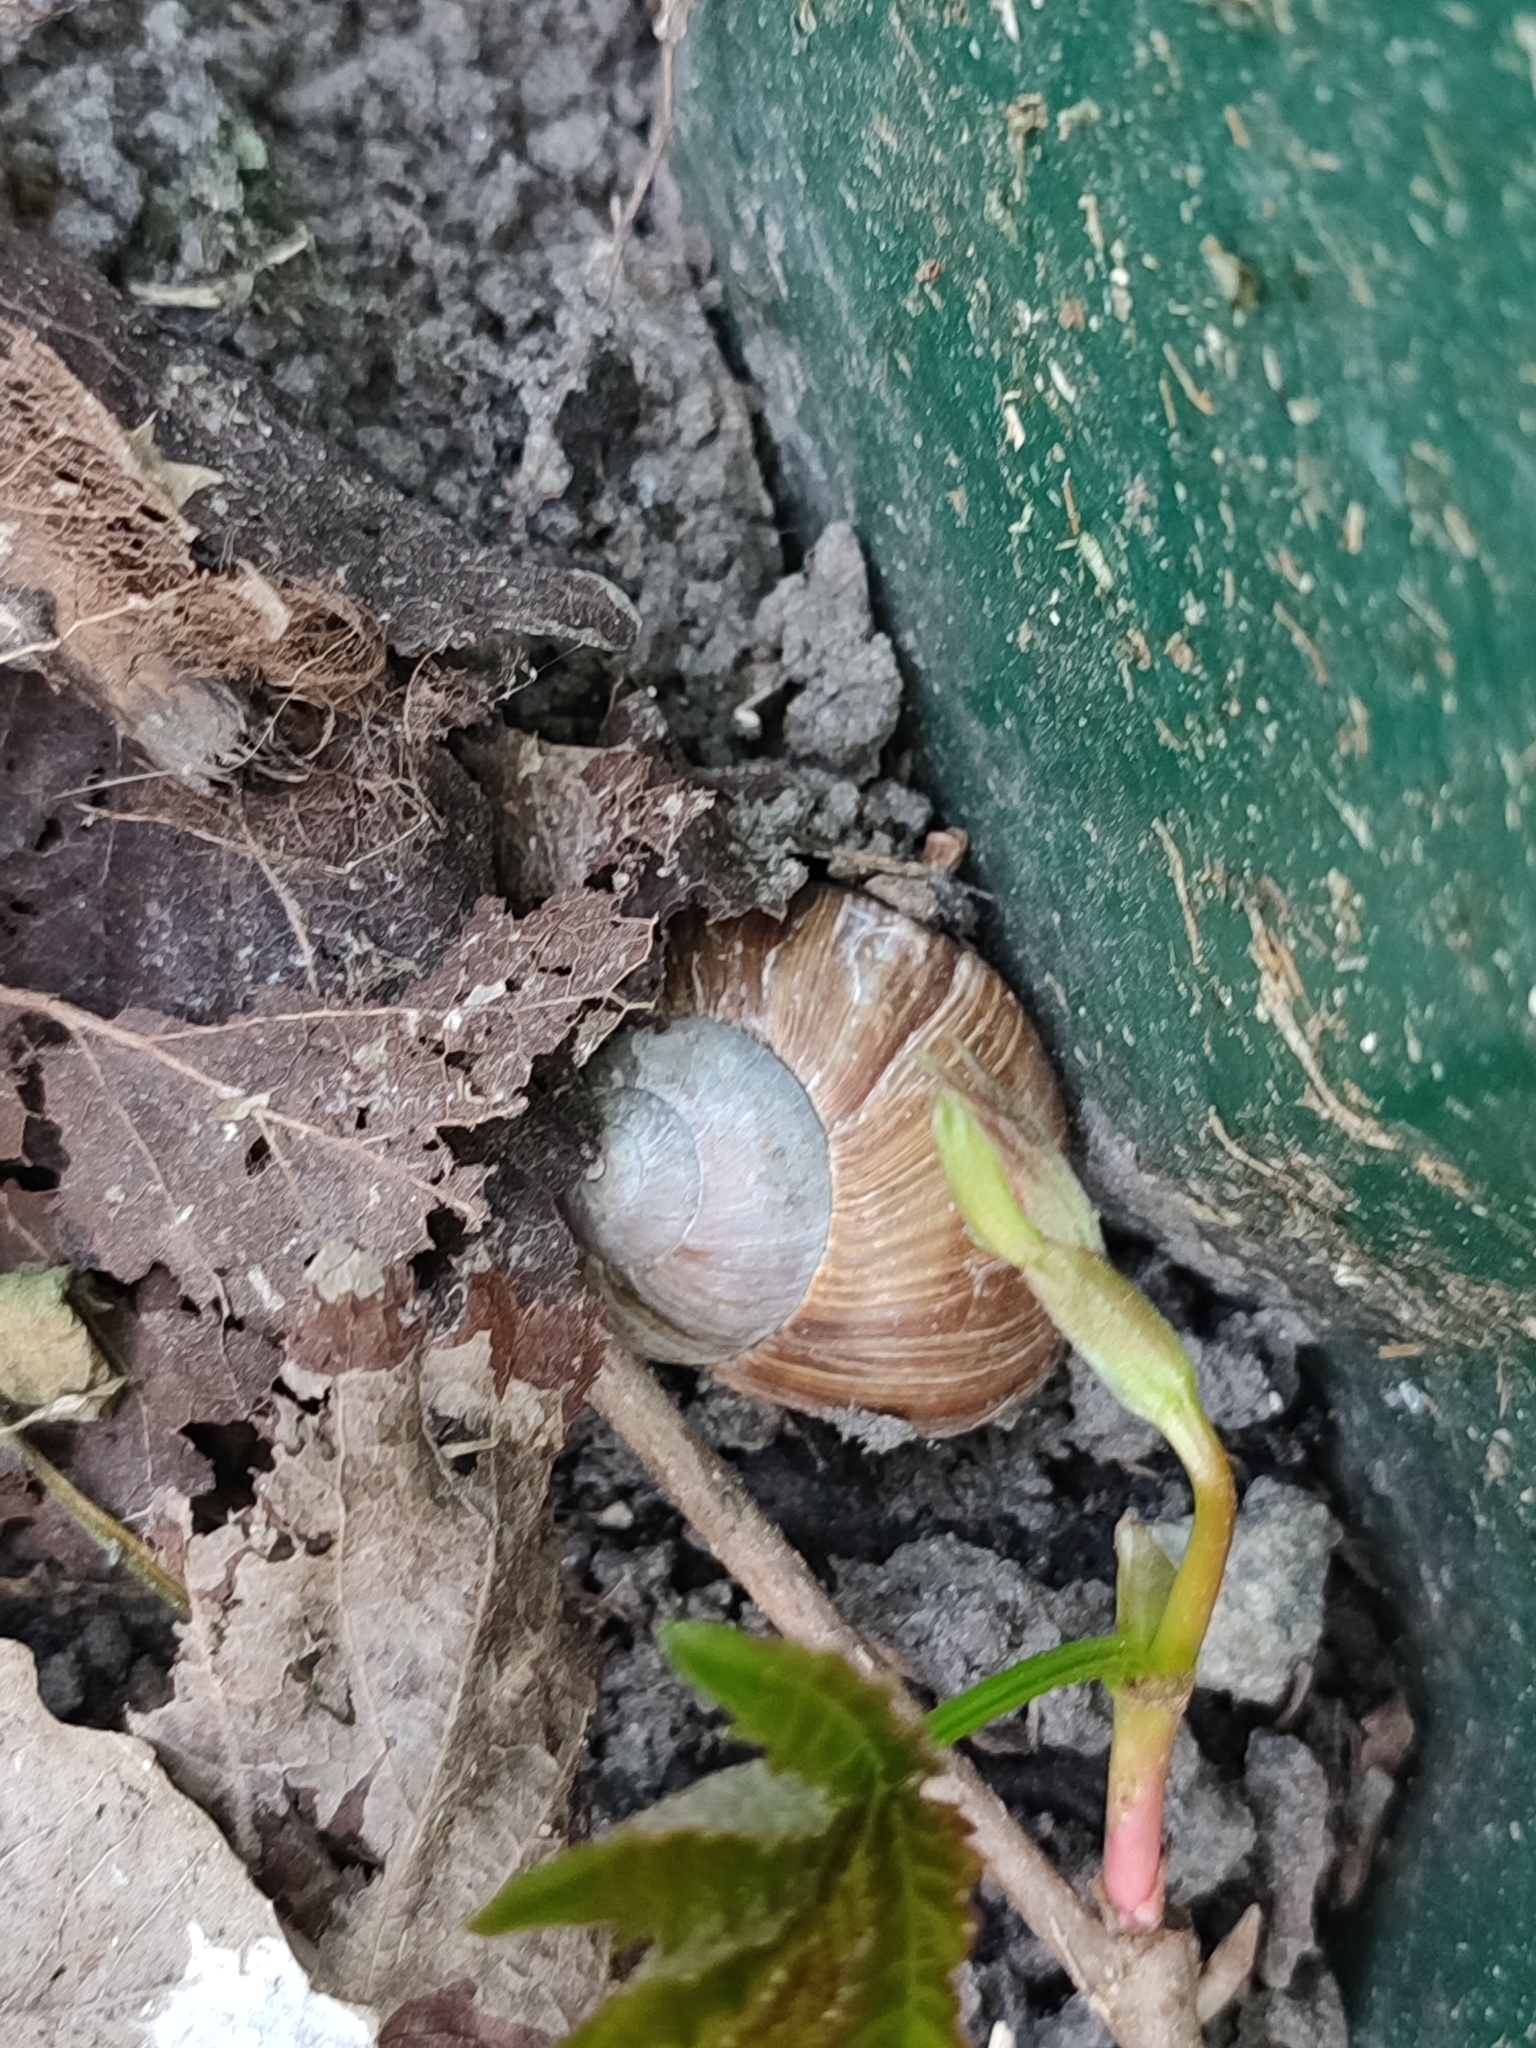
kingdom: Animalia
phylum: Mollusca
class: Gastropoda
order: Stylommatophora
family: Helicidae
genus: Helix
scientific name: Helix pomatia
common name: Roman snail
